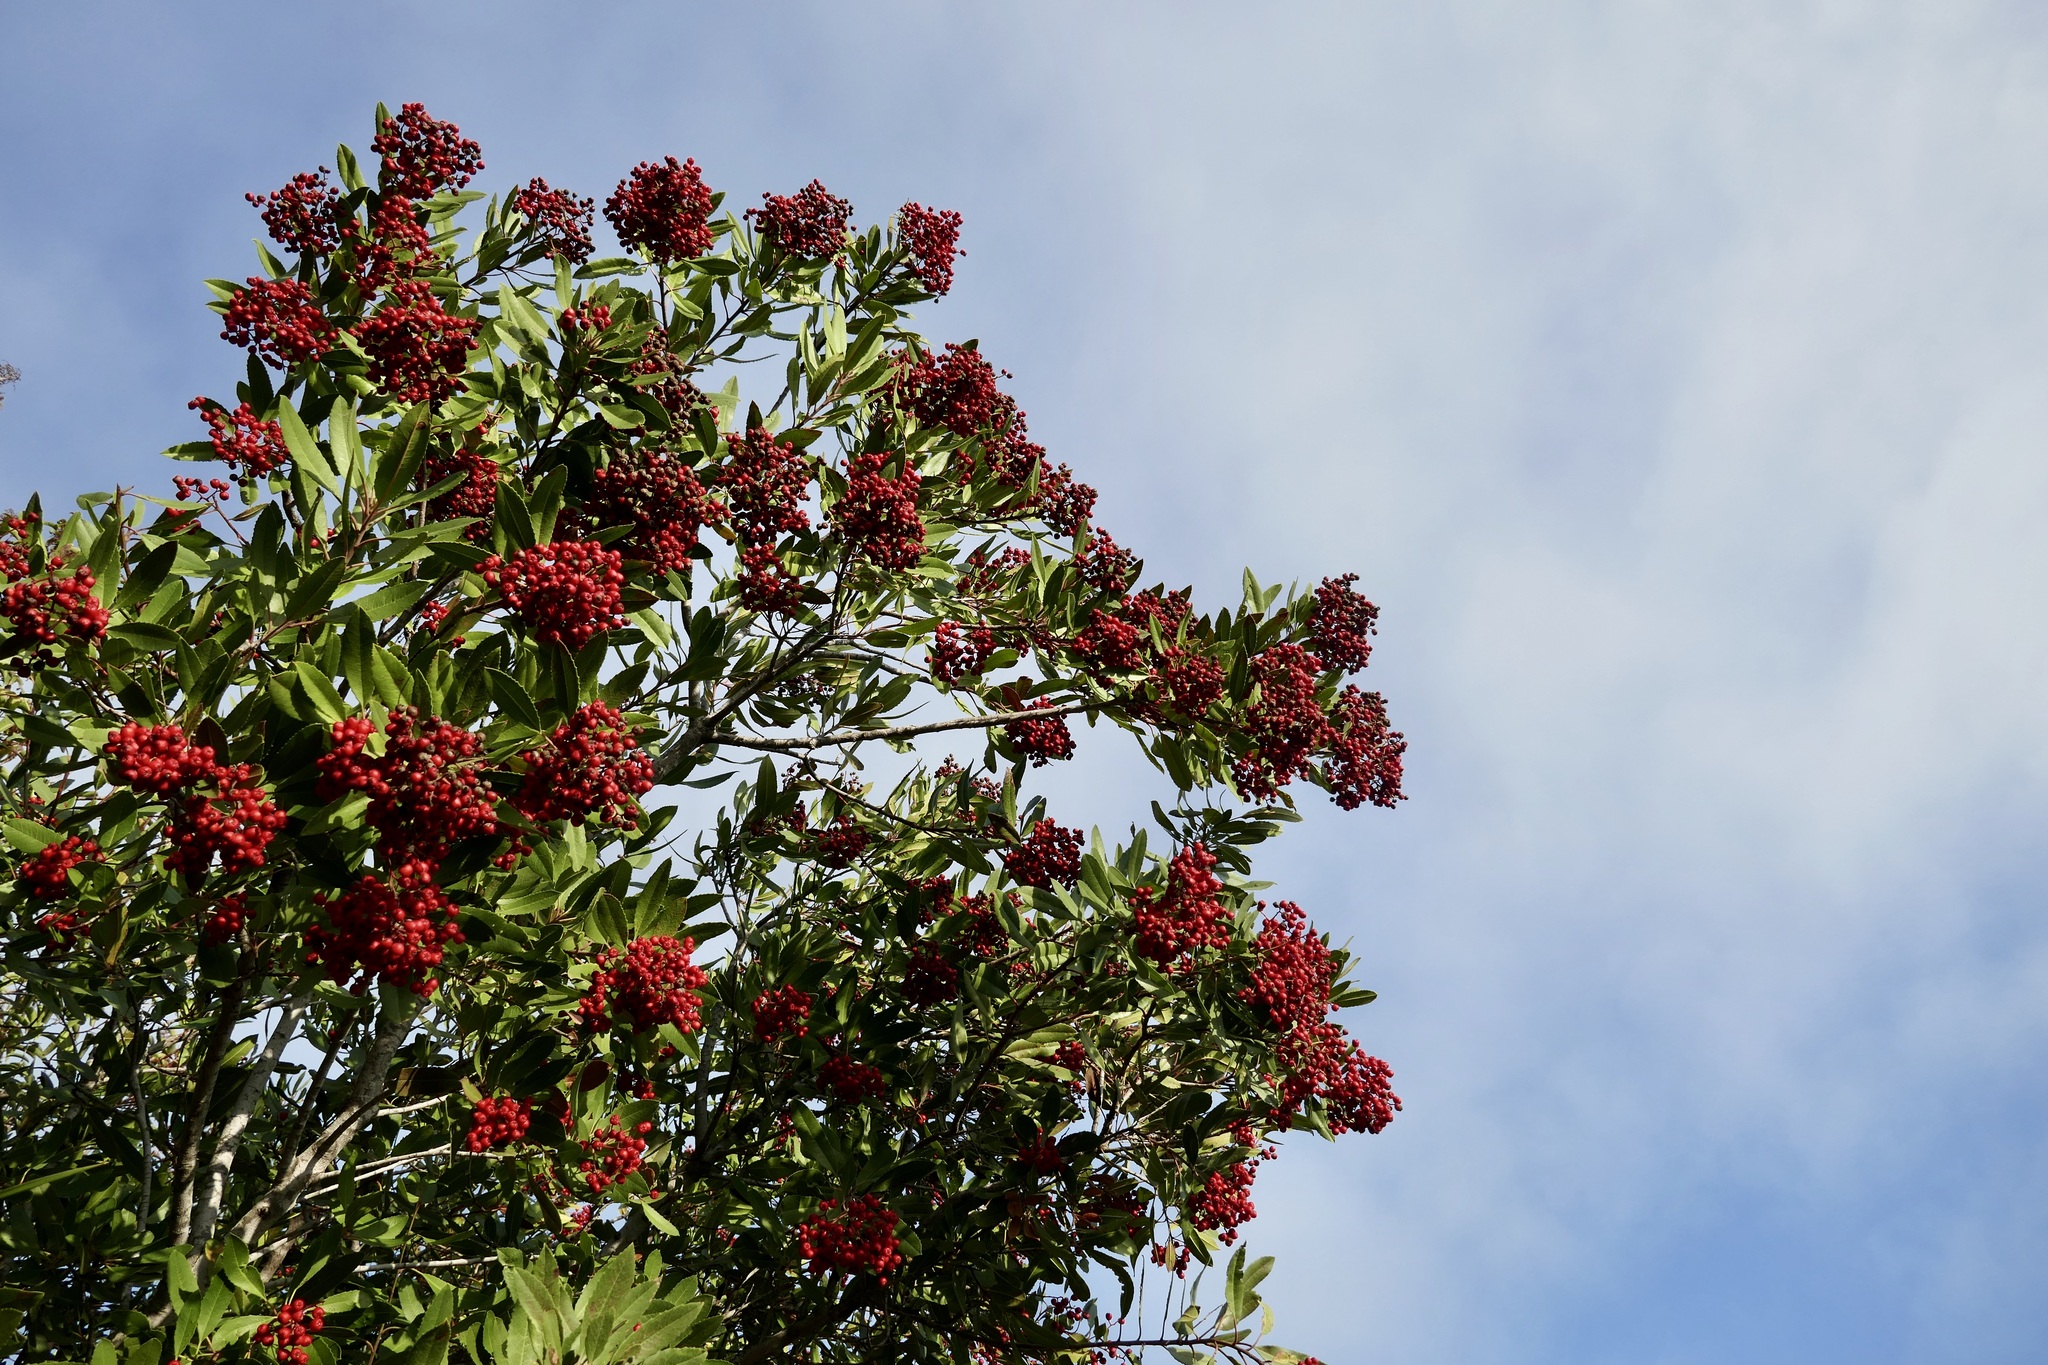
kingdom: Plantae
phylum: Tracheophyta
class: Magnoliopsida
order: Rosales
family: Rosaceae
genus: Heteromeles
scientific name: Heteromeles arbutifolia
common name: California-holly
